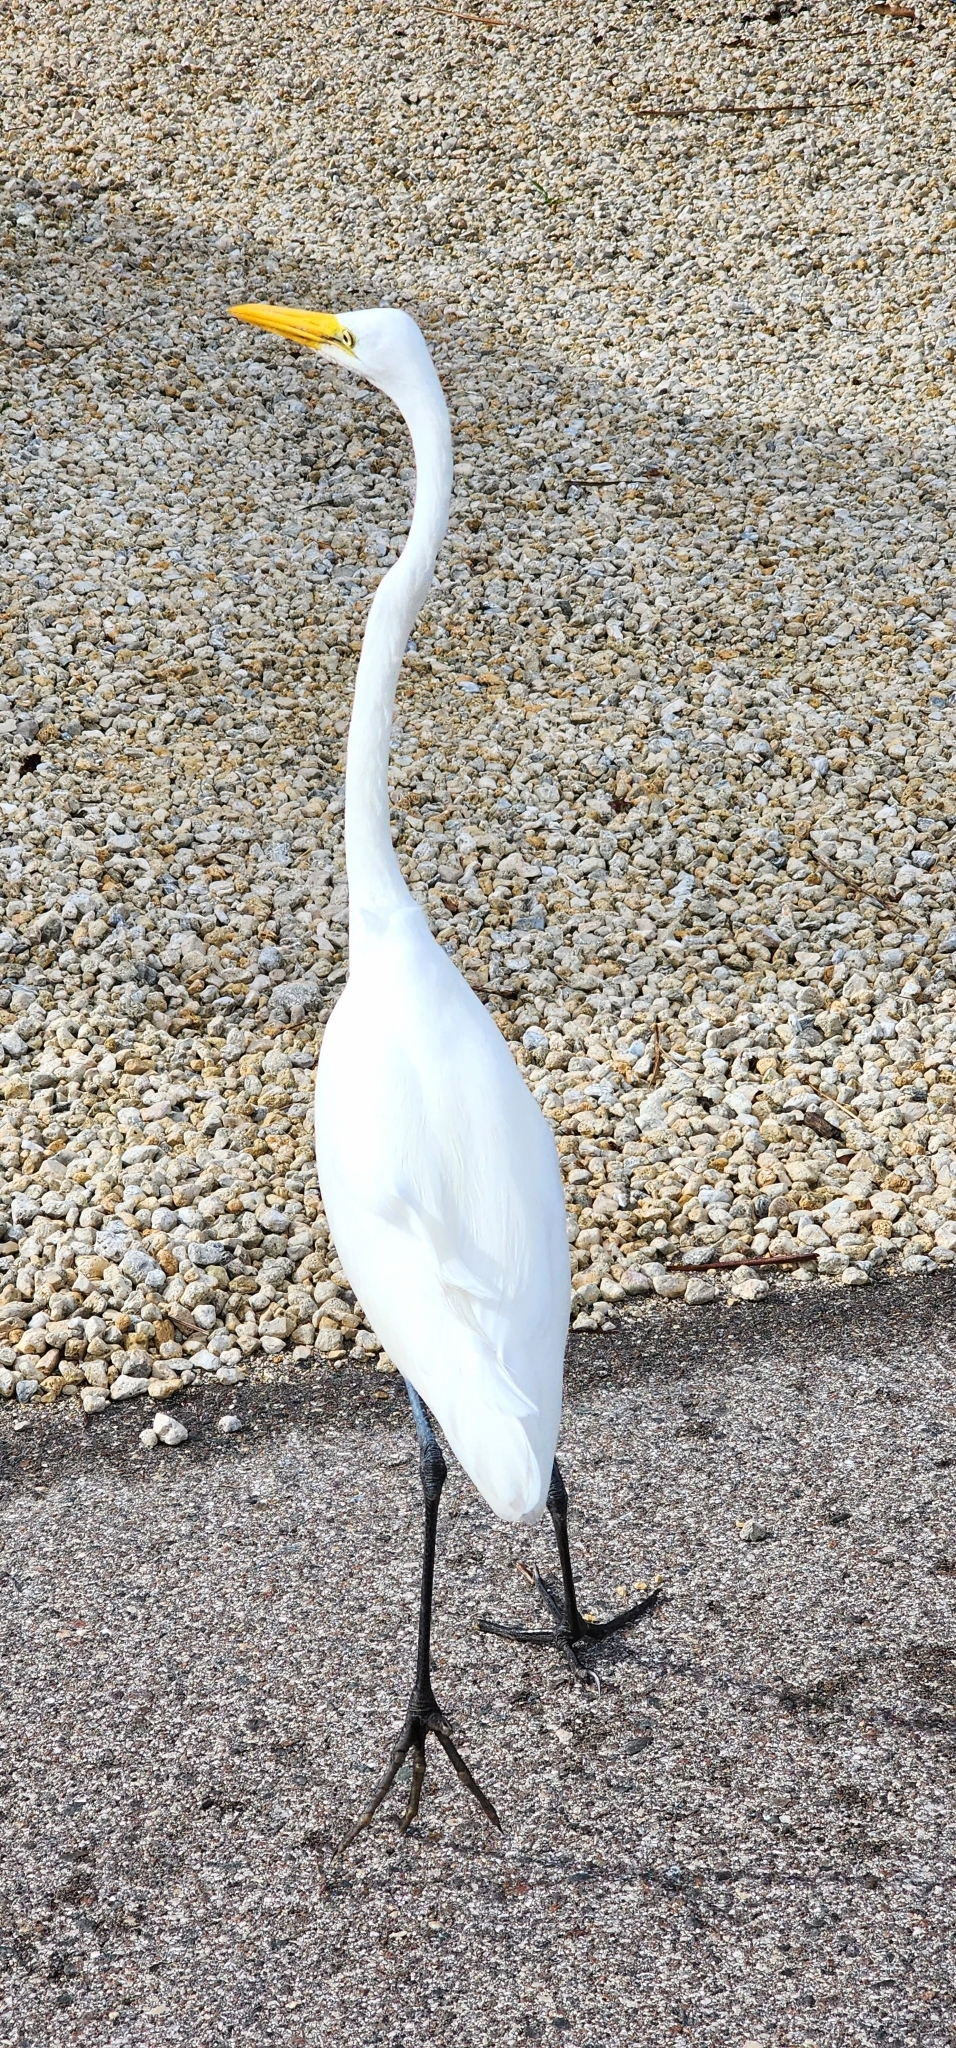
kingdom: Animalia
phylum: Chordata
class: Aves
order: Pelecaniformes
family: Ardeidae
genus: Ardea
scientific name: Ardea alba
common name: Great egret
